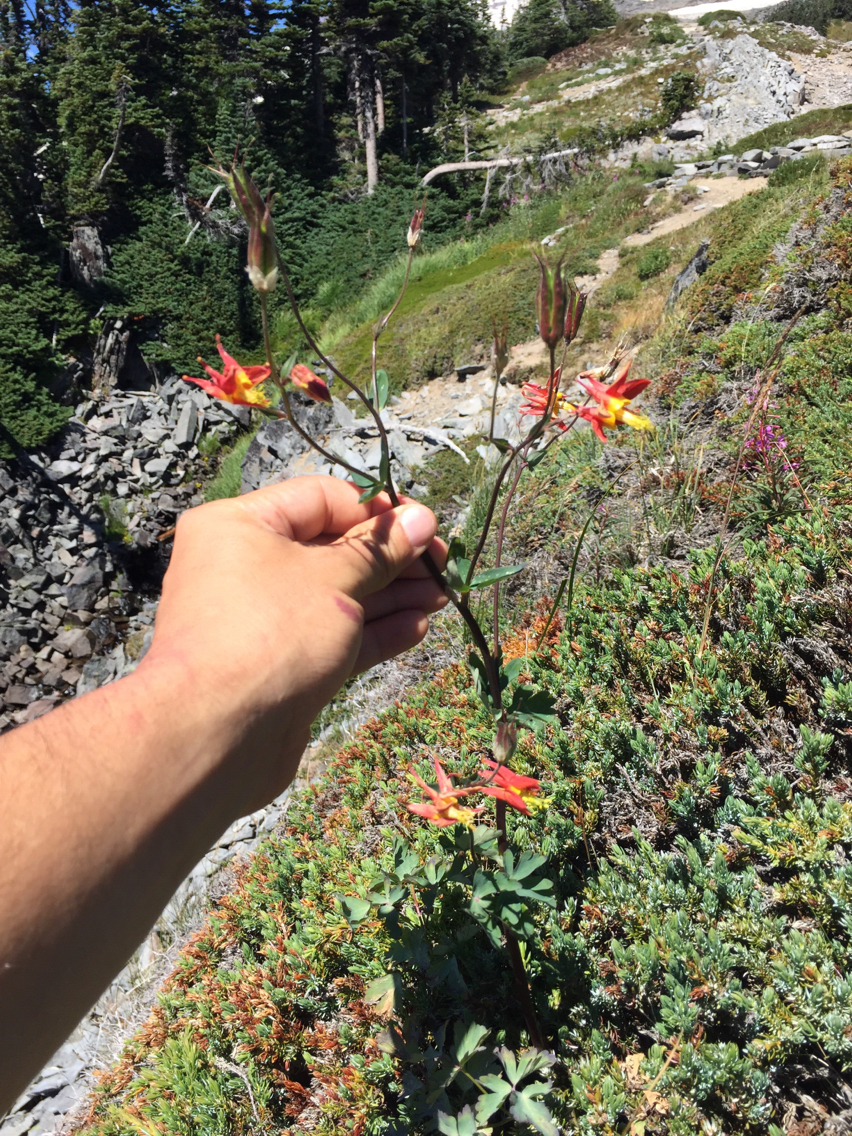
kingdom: Plantae
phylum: Tracheophyta
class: Magnoliopsida
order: Ranunculales
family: Ranunculaceae
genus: Aquilegia
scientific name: Aquilegia formosa
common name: Sitka columbine
